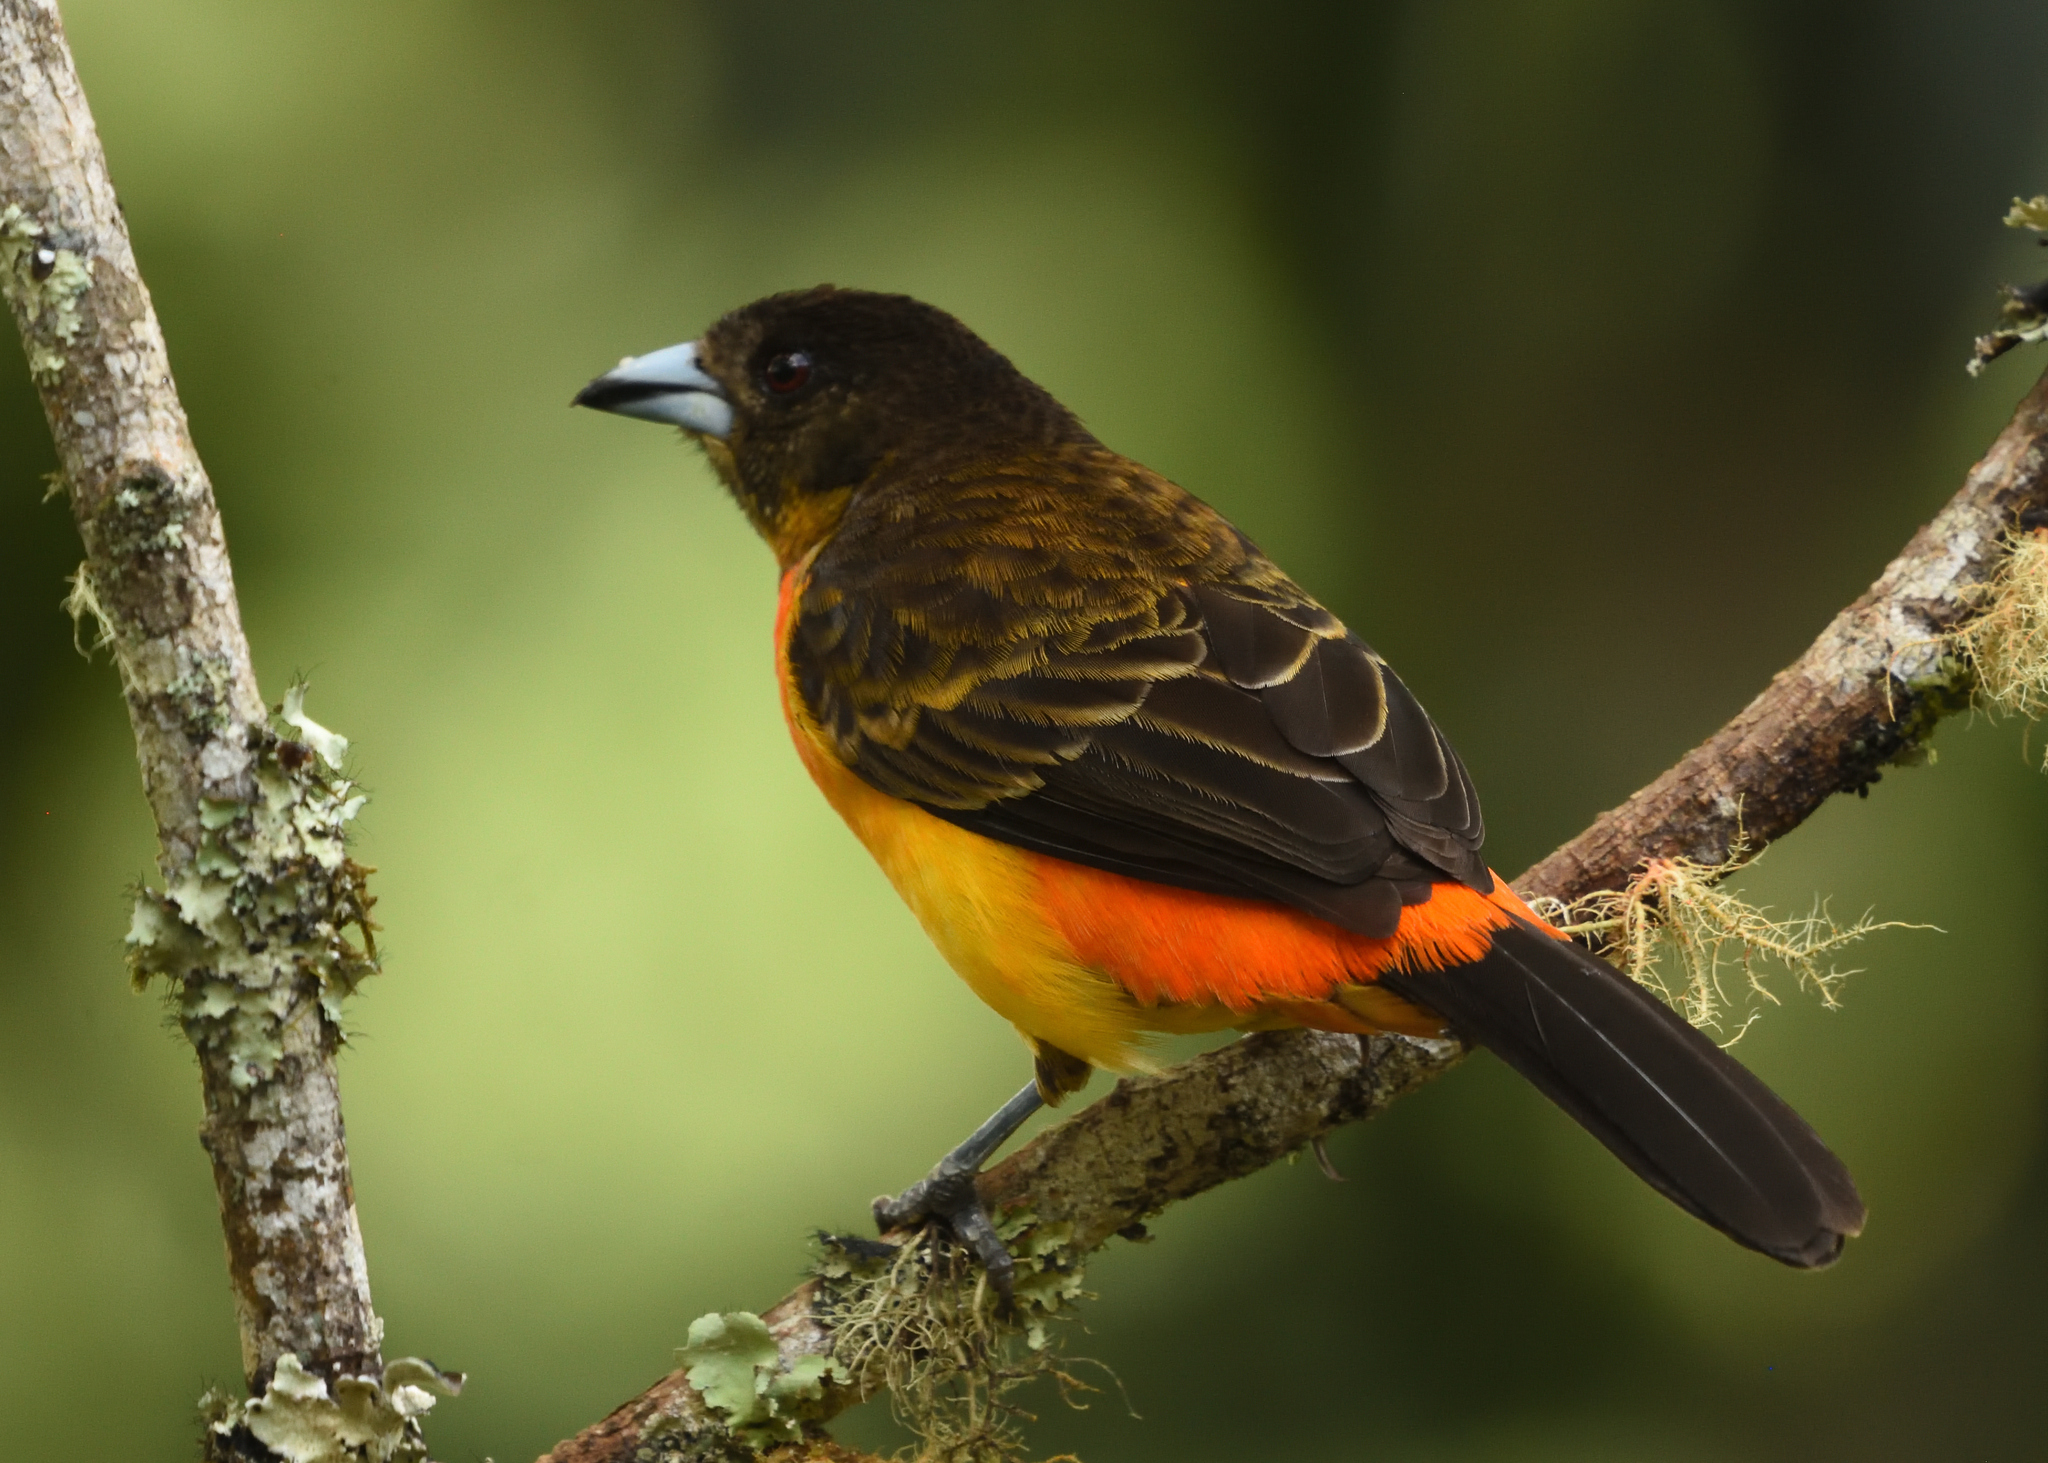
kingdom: Animalia
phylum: Chordata
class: Aves
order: Passeriformes
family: Thraupidae
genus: Ramphocelus
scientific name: Ramphocelus flammigerus
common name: Flame-rumped tanager
